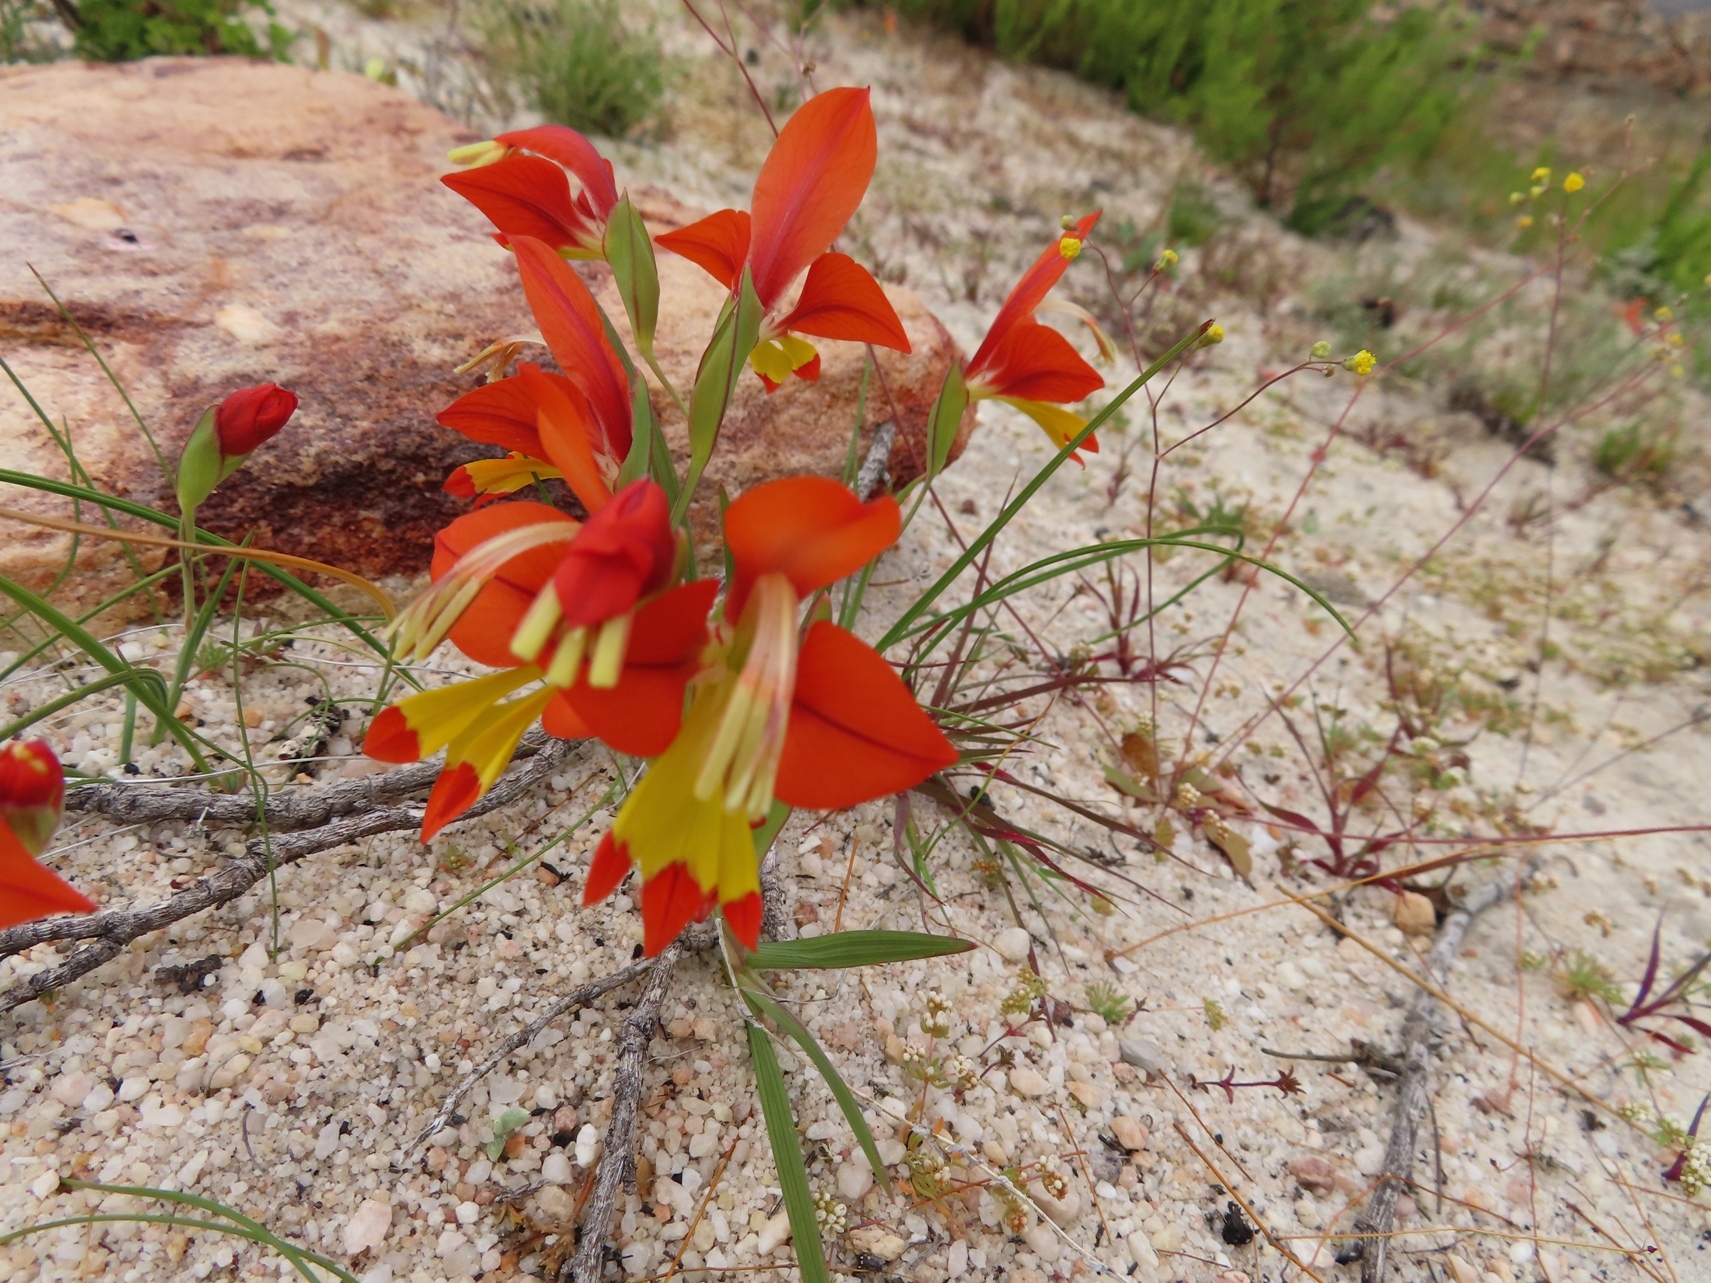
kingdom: Plantae
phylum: Tracheophyta
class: Liliopsida
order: Asparagales
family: Iridaceae
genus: Gladiolus
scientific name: Gladiolus alatus
